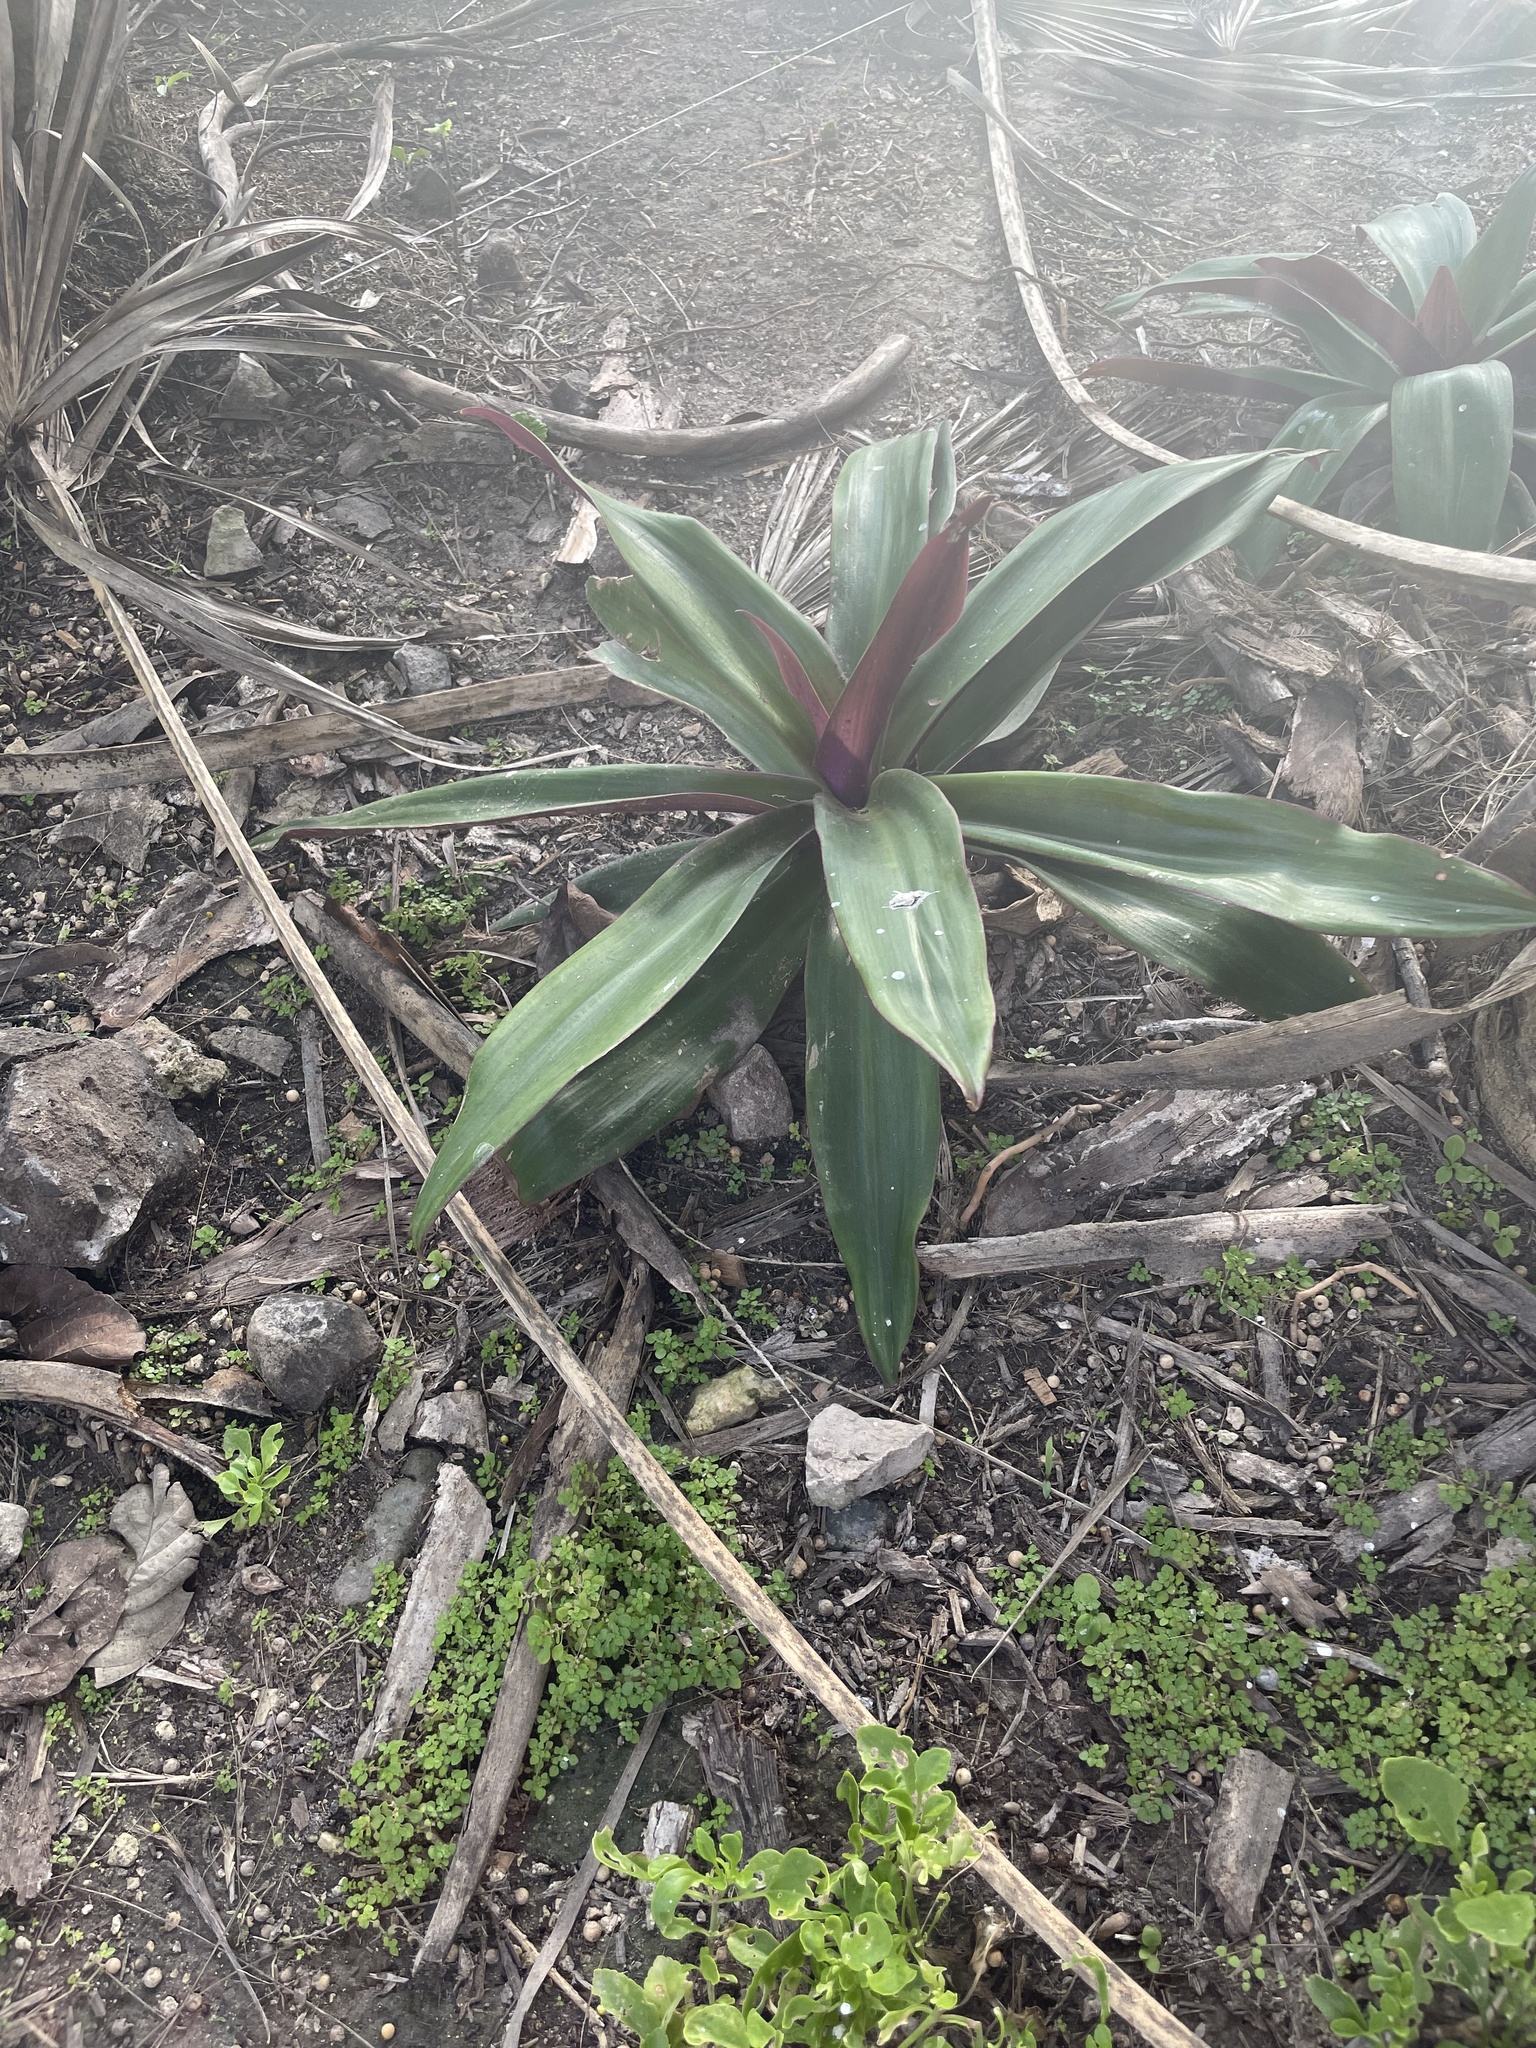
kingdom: Plantae
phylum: Tracheophyta
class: Liliopsida
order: Commelinales
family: Commelinaceae
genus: Tradescantia
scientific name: Tradescantia spathacea
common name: Boatlily
